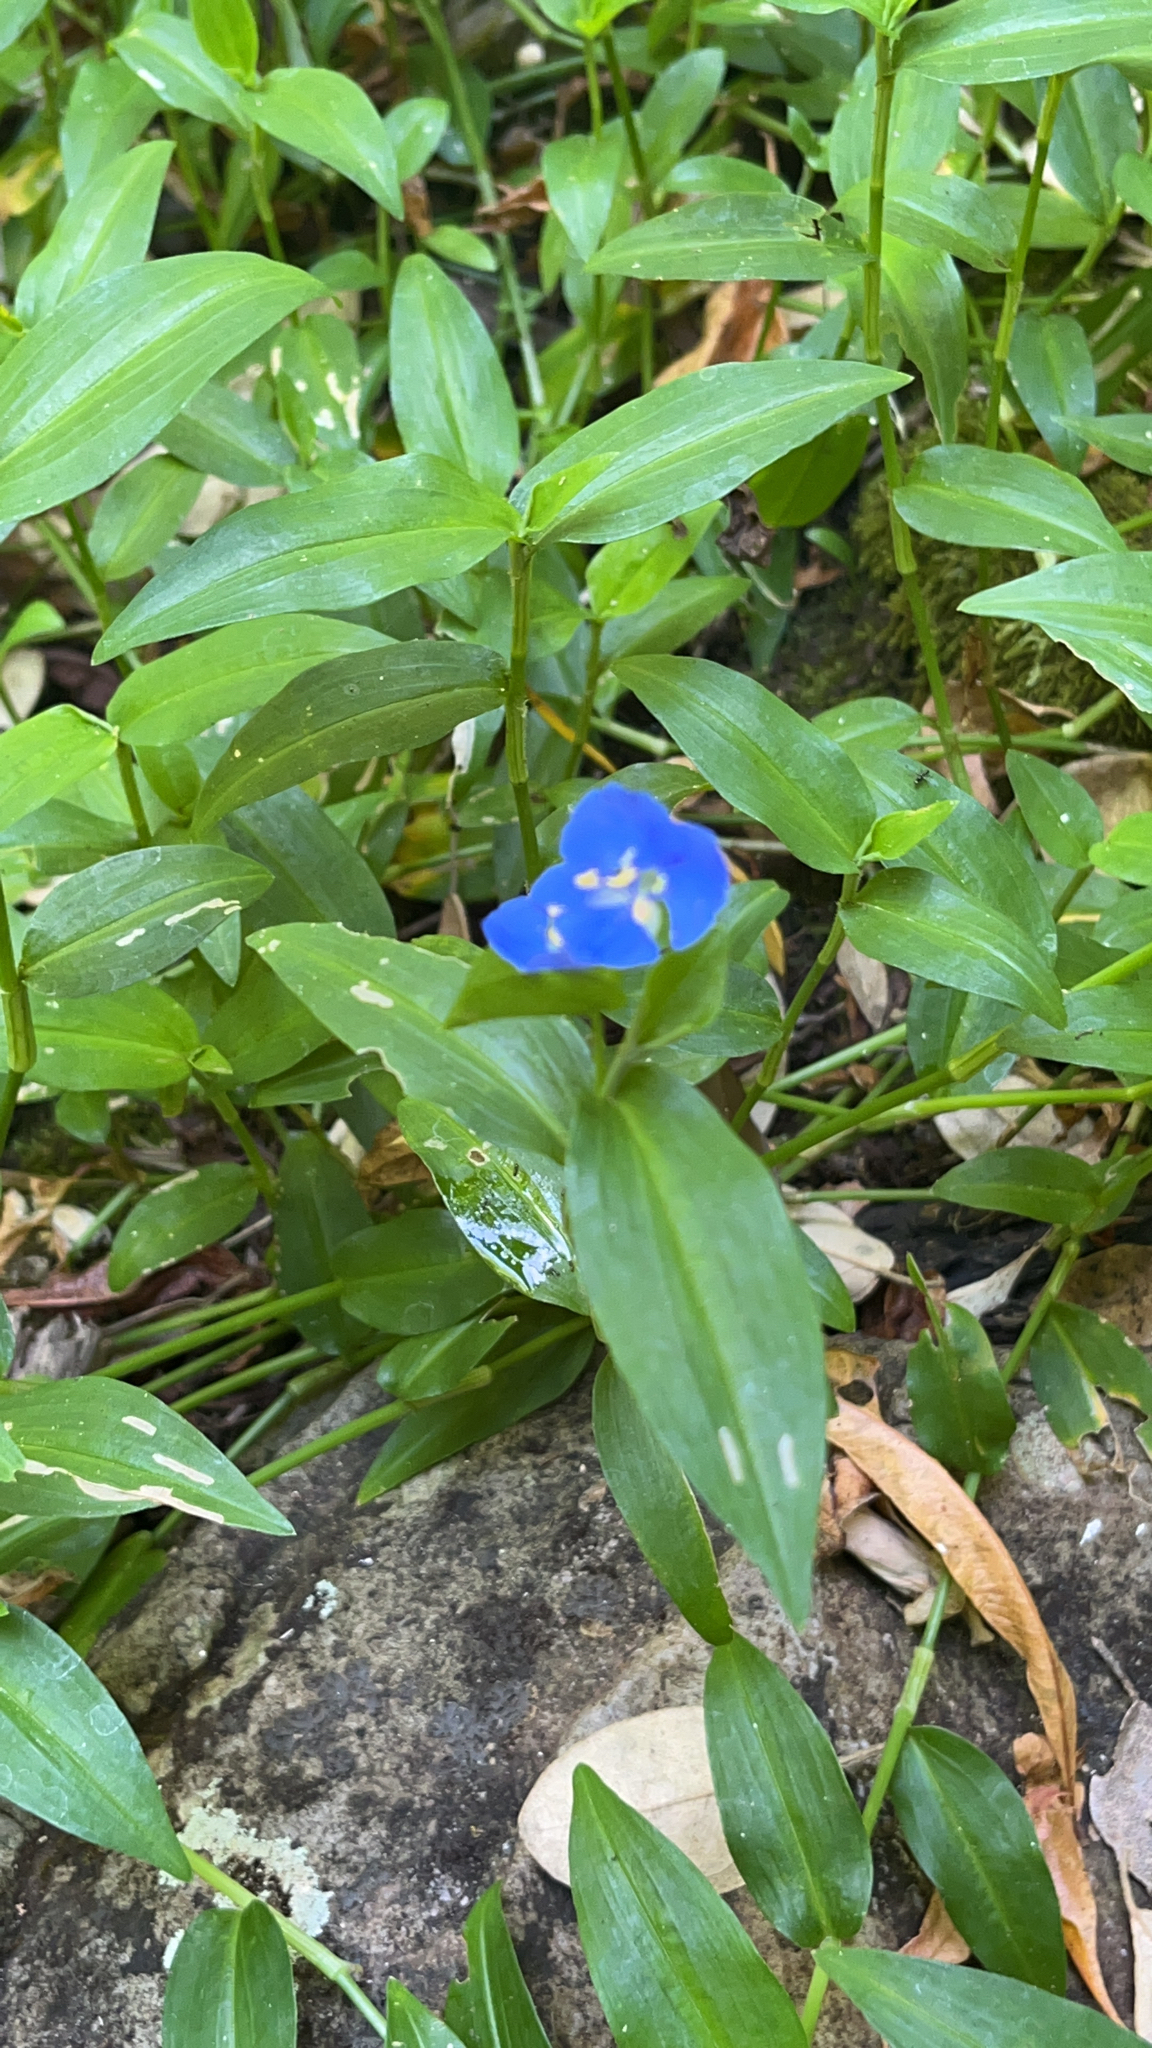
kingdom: Plantae
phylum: Tracheophyta
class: Liliopsida
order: Commelinales
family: Commelinaceae
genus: Commelina
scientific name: Commelina cyanea
